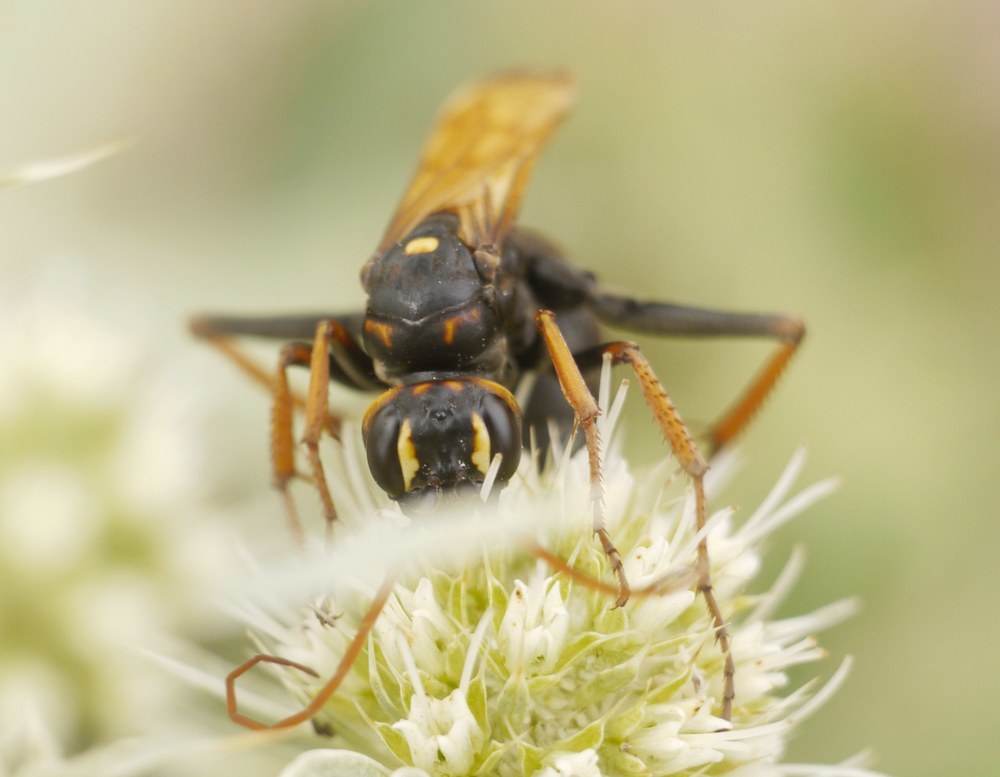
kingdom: Animalia
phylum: Arthropoda
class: Insecta
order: Hymenoptera
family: Pompilidae
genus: Cryptocheilus
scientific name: Cryptocheilus octomaculatus
